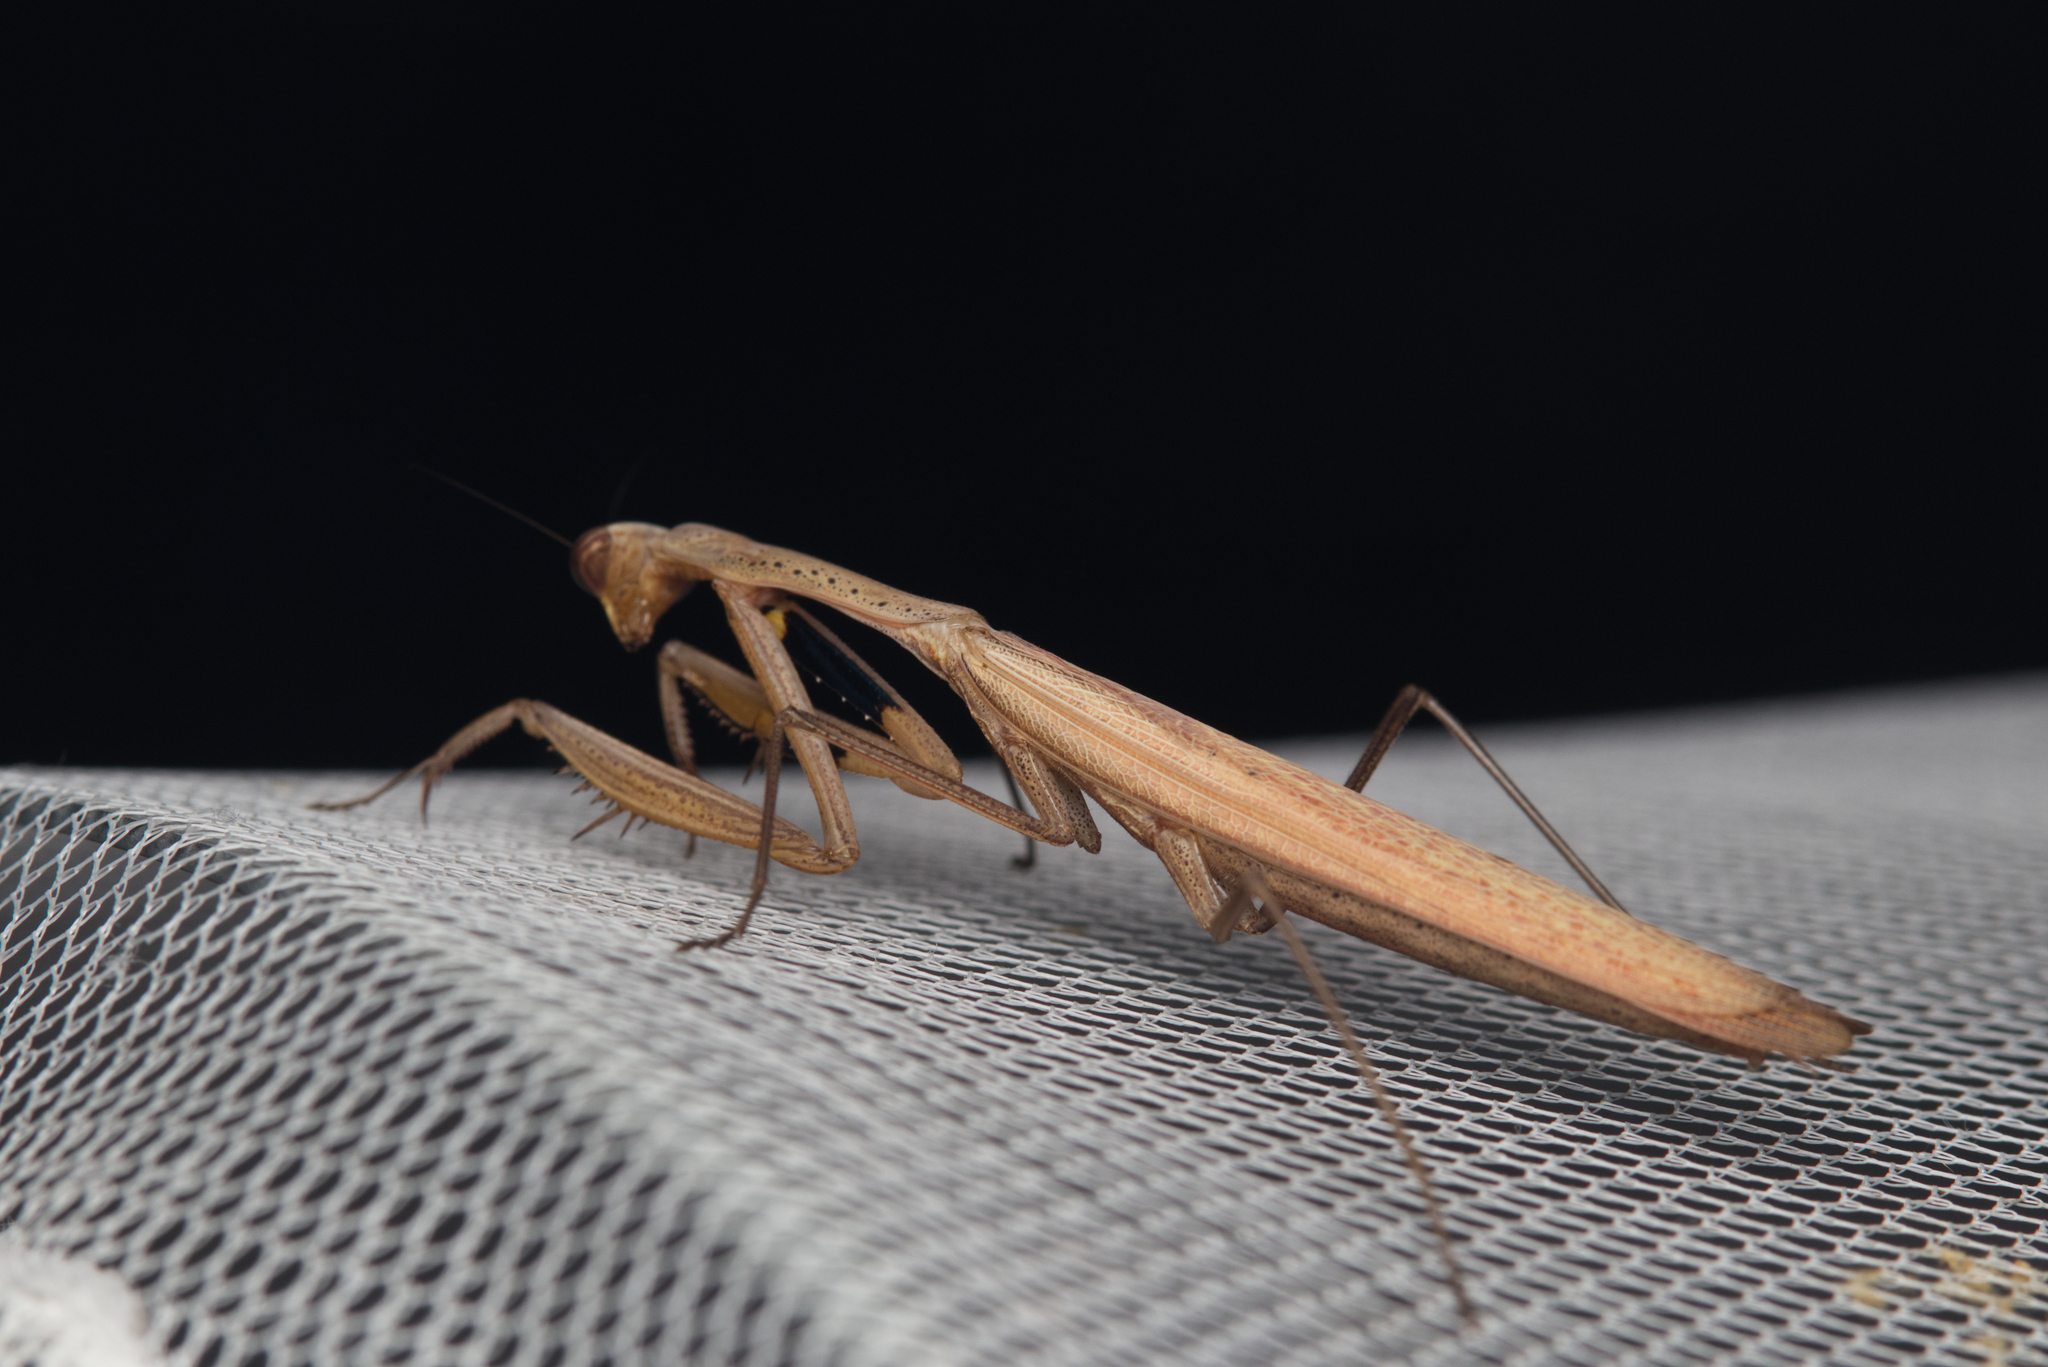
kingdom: Animalia
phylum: Arthropoda
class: Insecta
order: Mantodea
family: Mantidae
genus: Statilia
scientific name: Statilia apicalis
